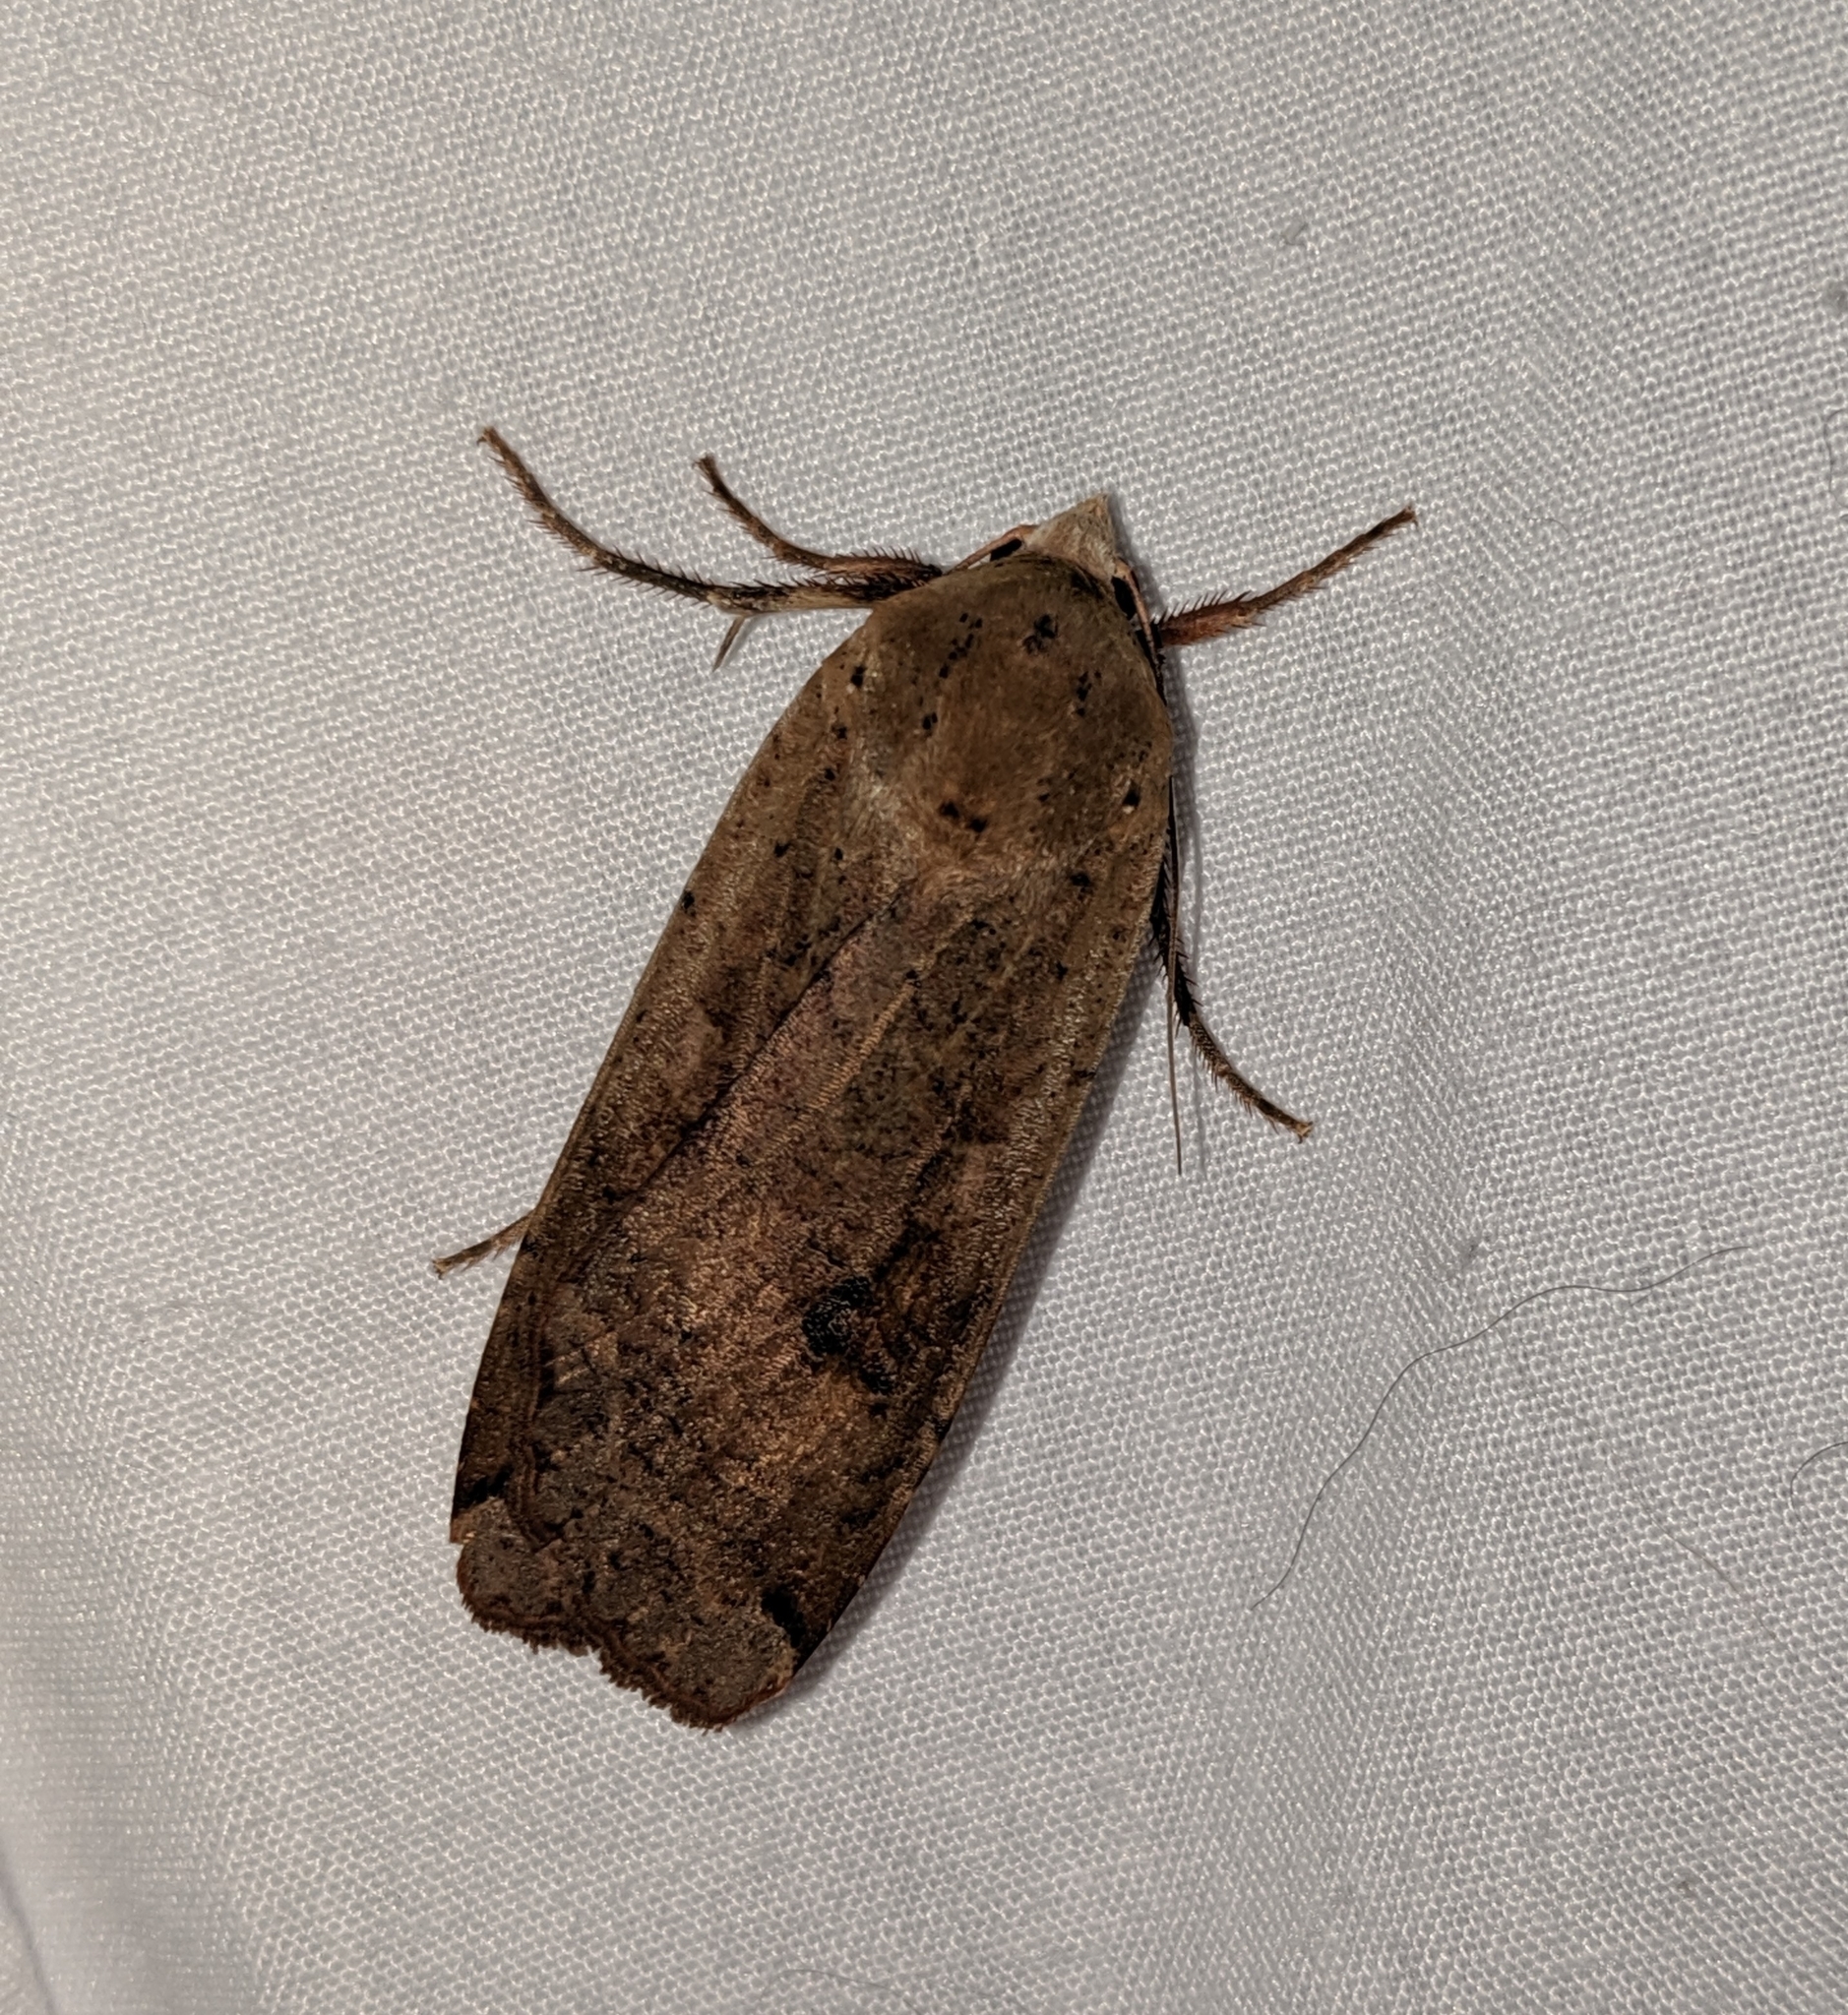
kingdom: Animalia
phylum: Arthropoda
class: Insecta
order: Lepidoptera
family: Noctuidae
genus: Noctua
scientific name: Noctua pronuba
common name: Large yellow underwing
